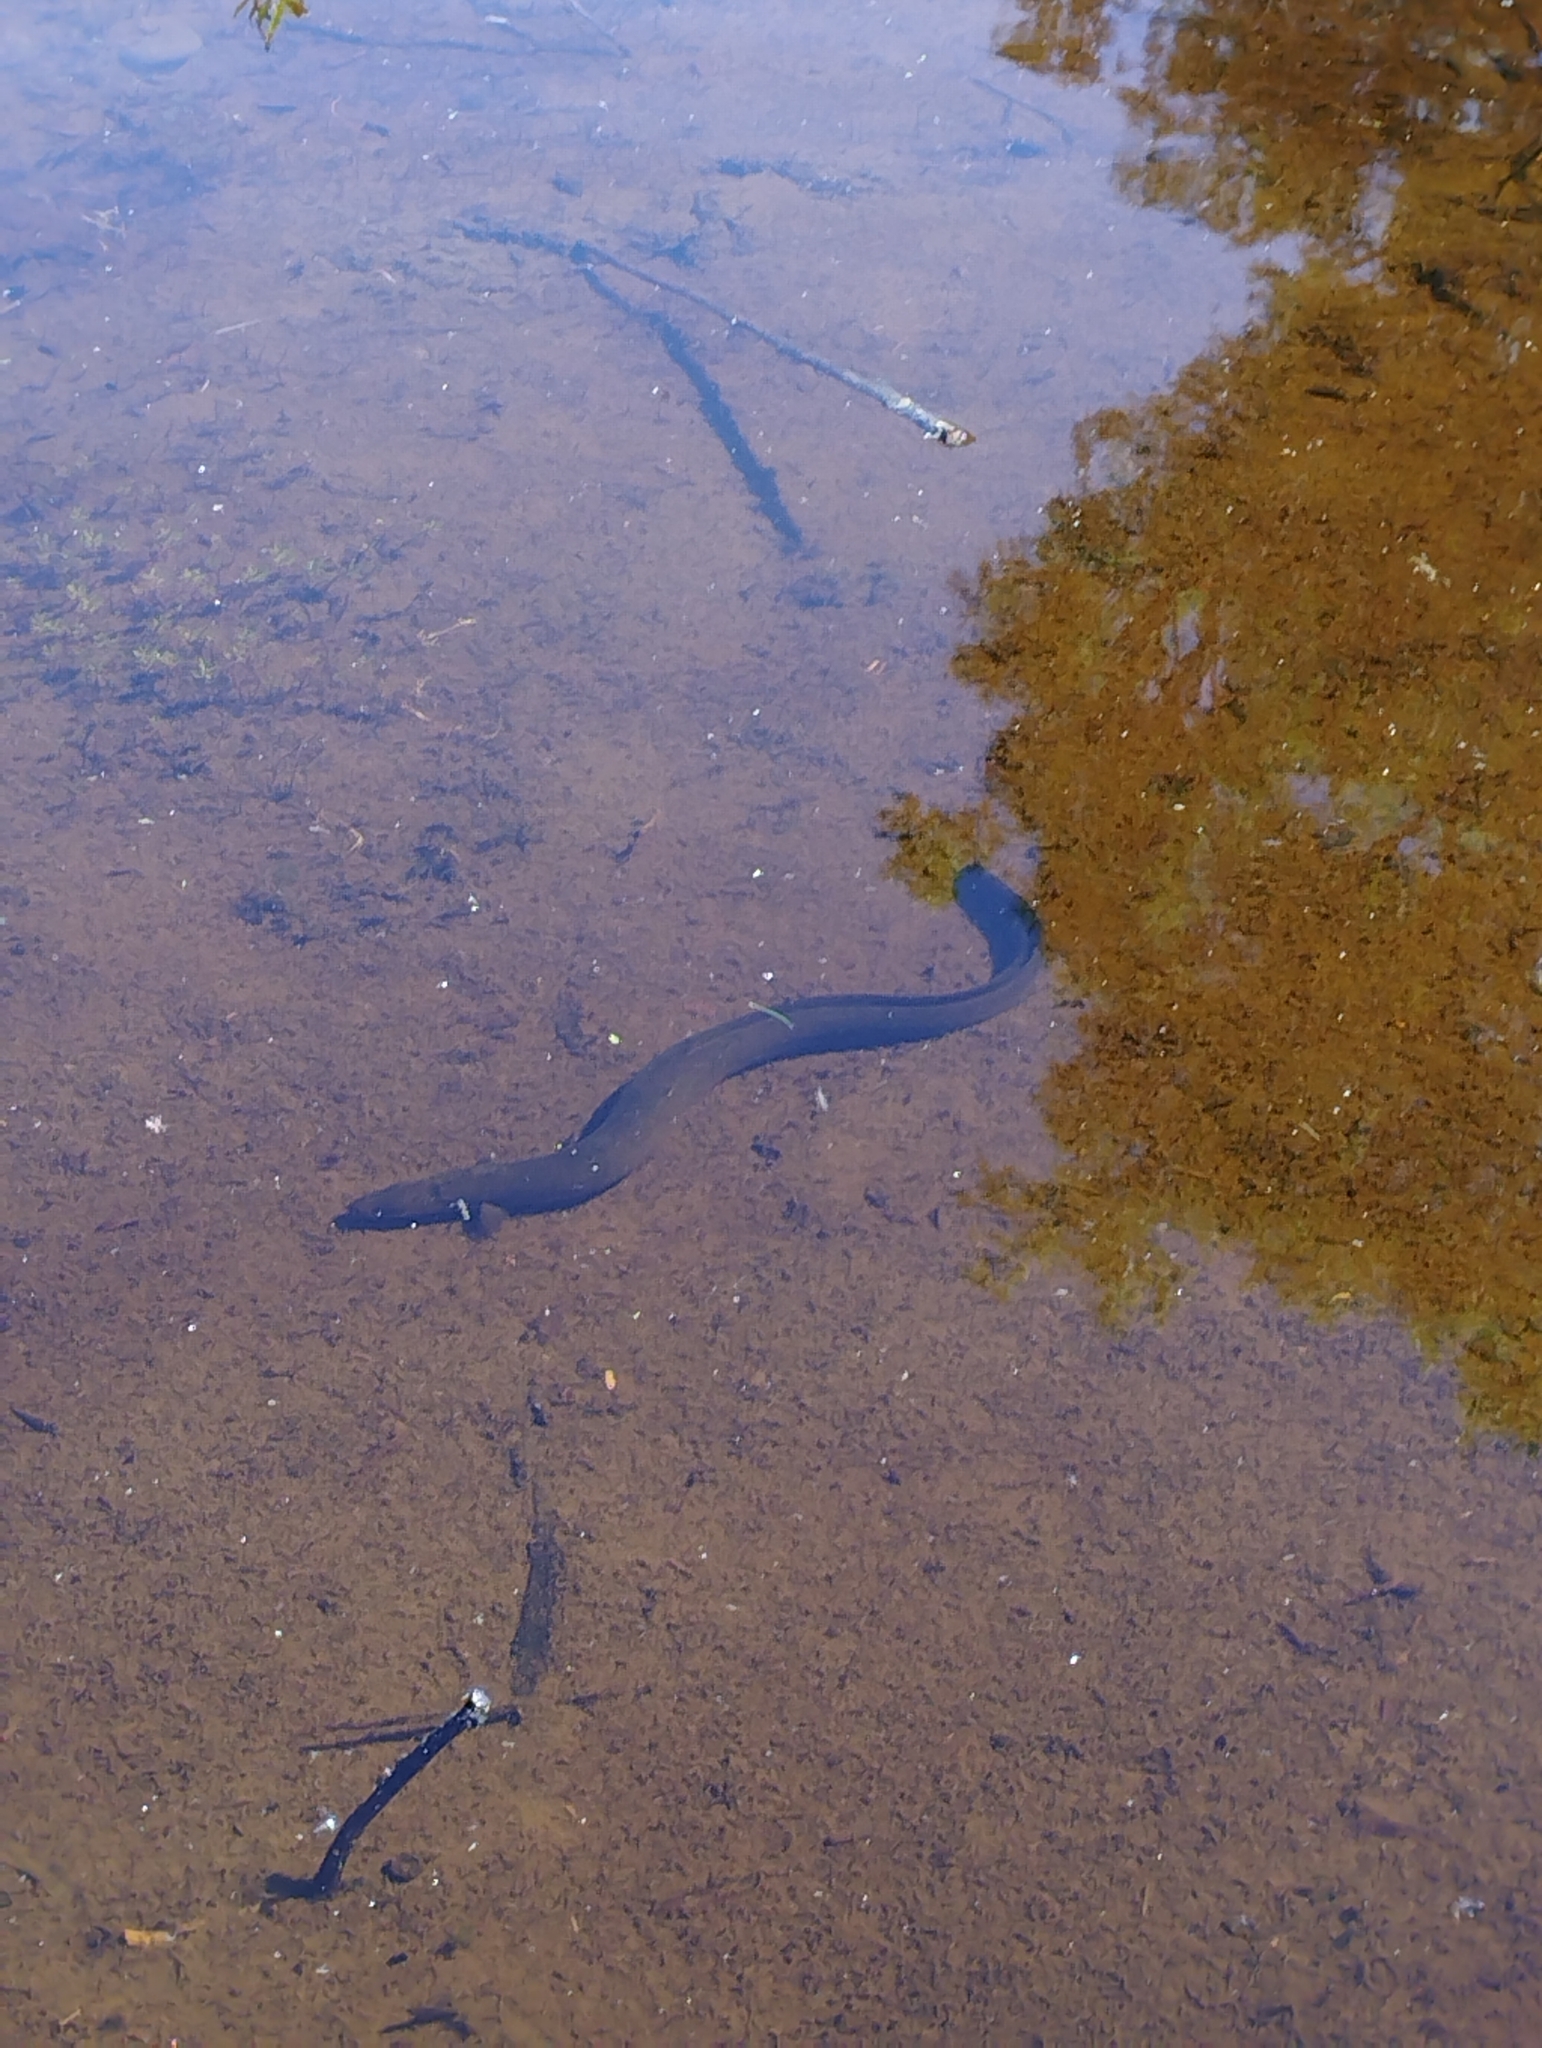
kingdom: Animalia
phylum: Chordata
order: Anguilliformes
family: Anguillidae
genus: Anguilla
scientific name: Anguilla australis
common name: Shortfin eel
